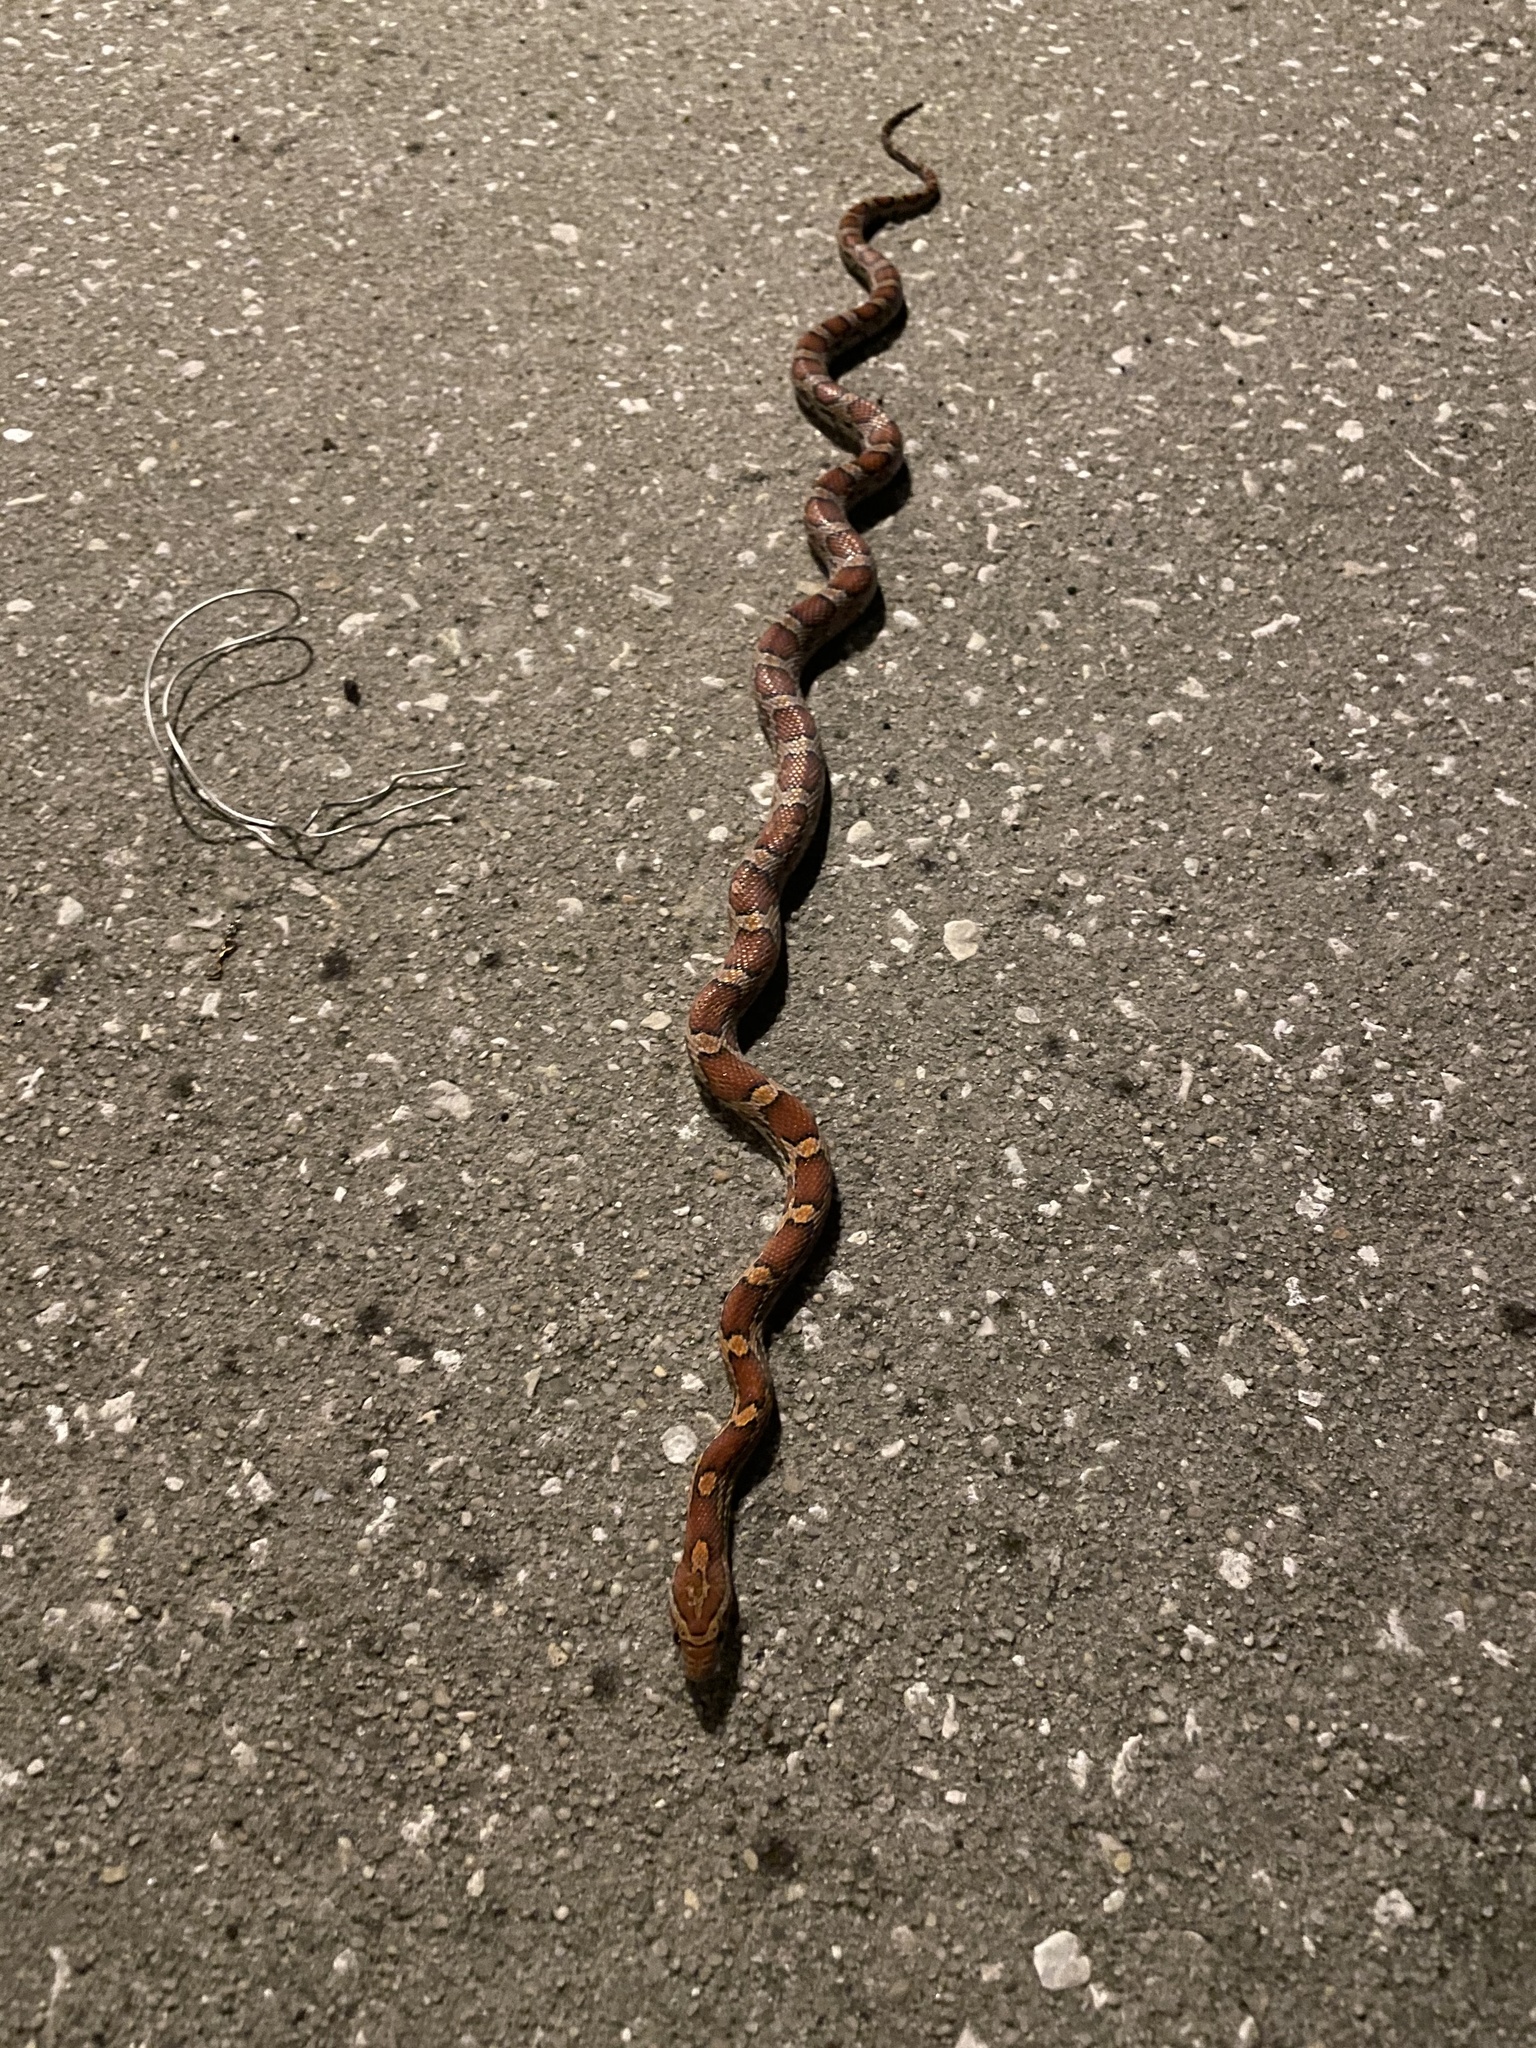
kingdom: Animalia
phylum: Chordata
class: Squamata
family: Colubridae
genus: Pantherophis
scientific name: Pantherophis guttatus
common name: Red cornsnake
